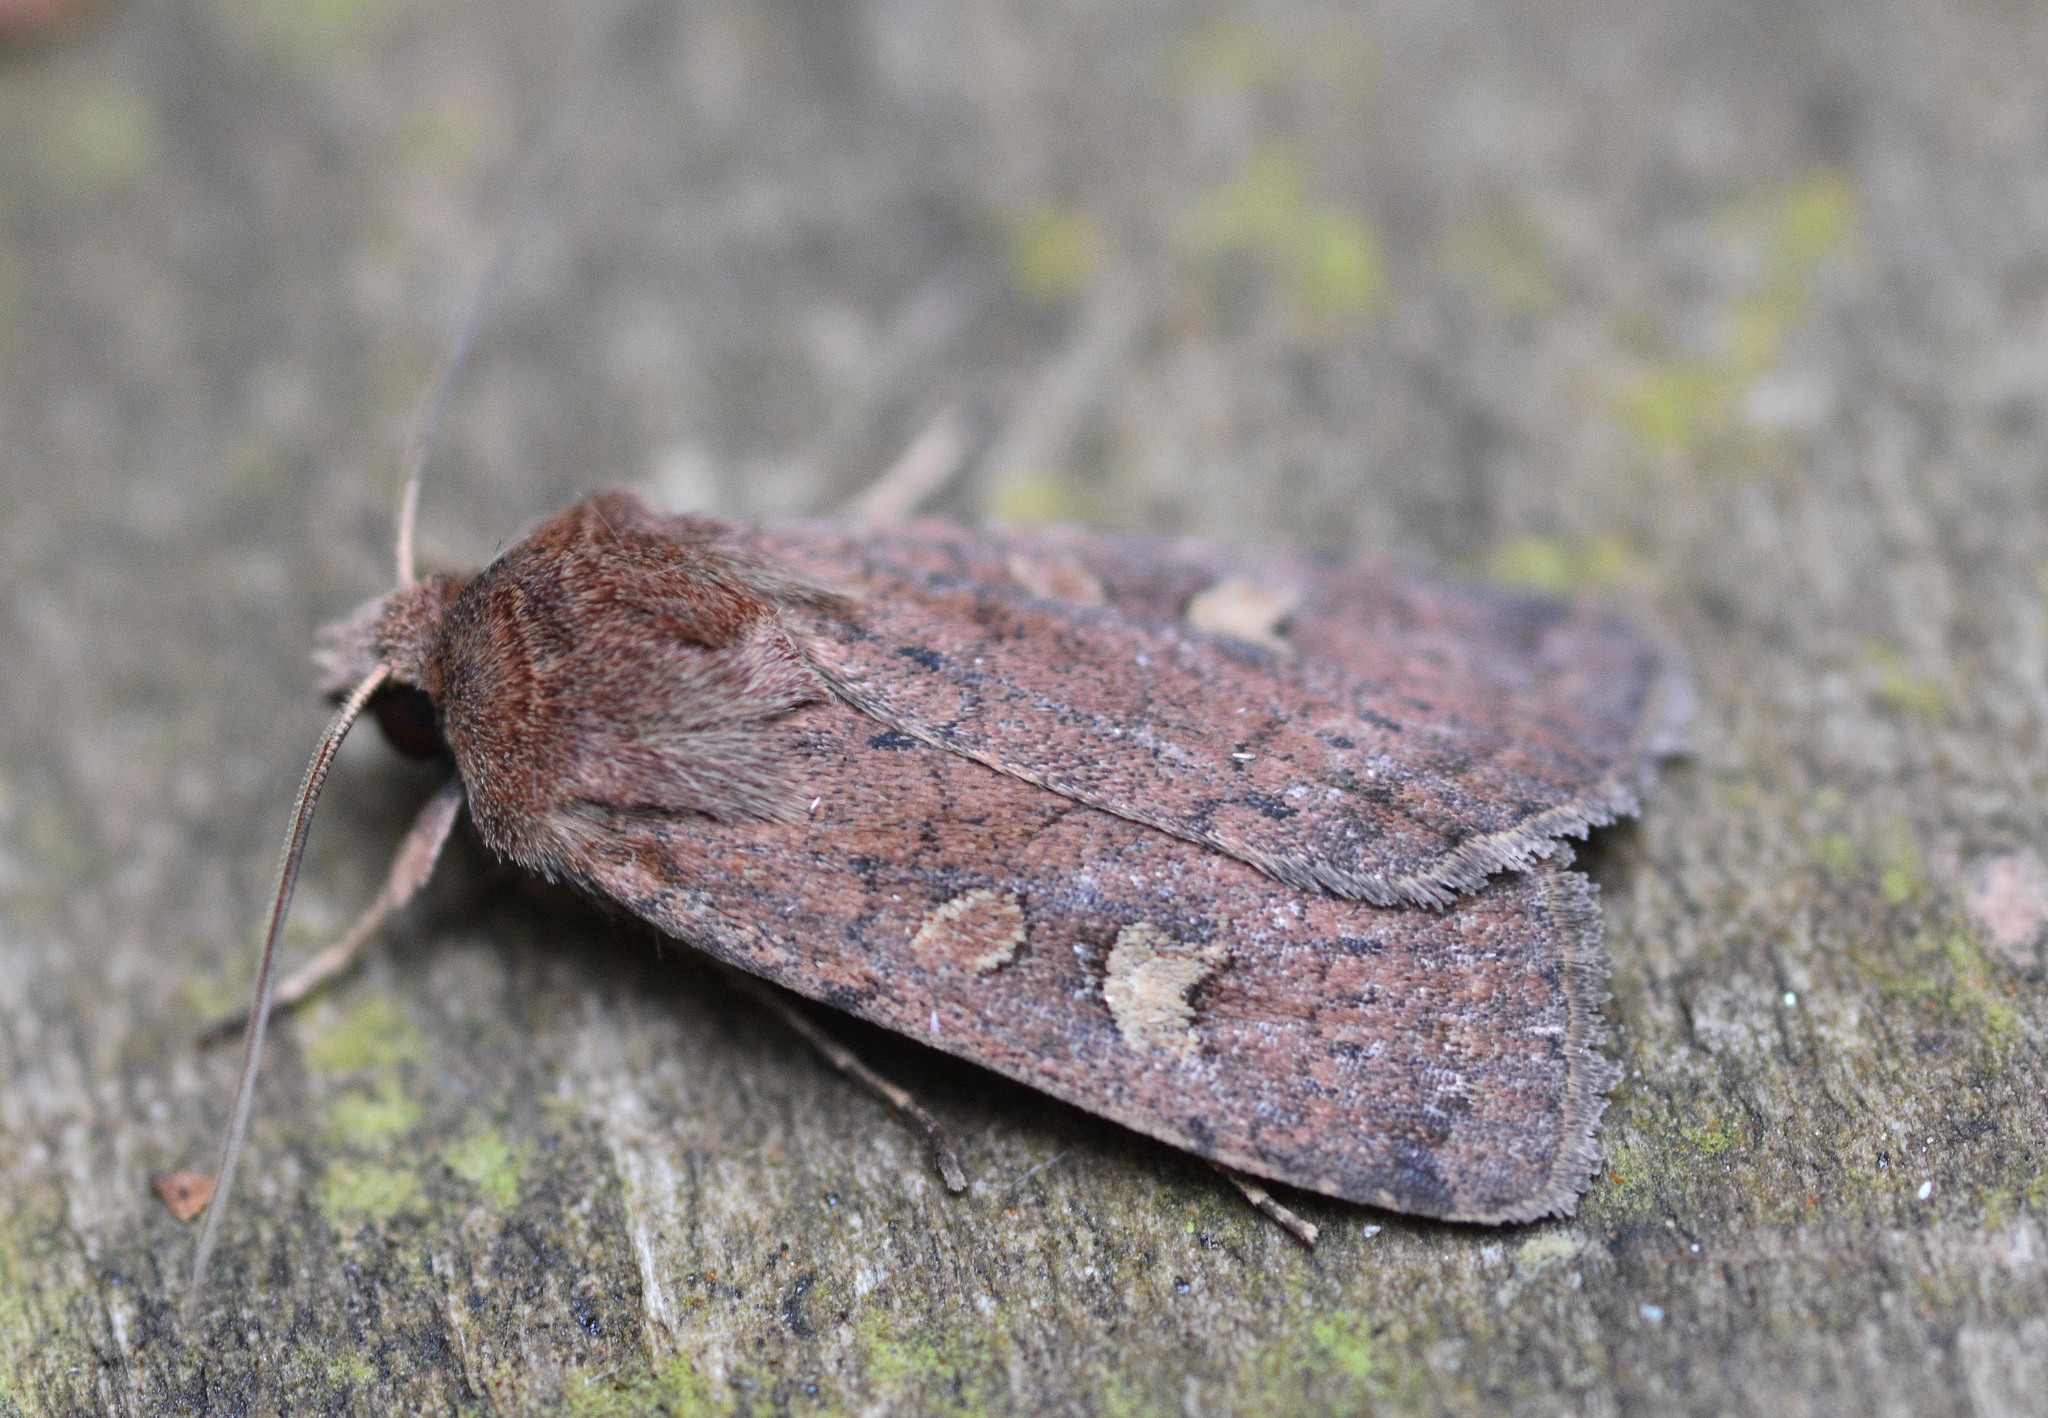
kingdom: Animalia
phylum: Arthropoda
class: Insecta
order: Lepidoptera
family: Noctuidae
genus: Xestia
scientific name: Xestia xanthographa
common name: Square-spot rustic
